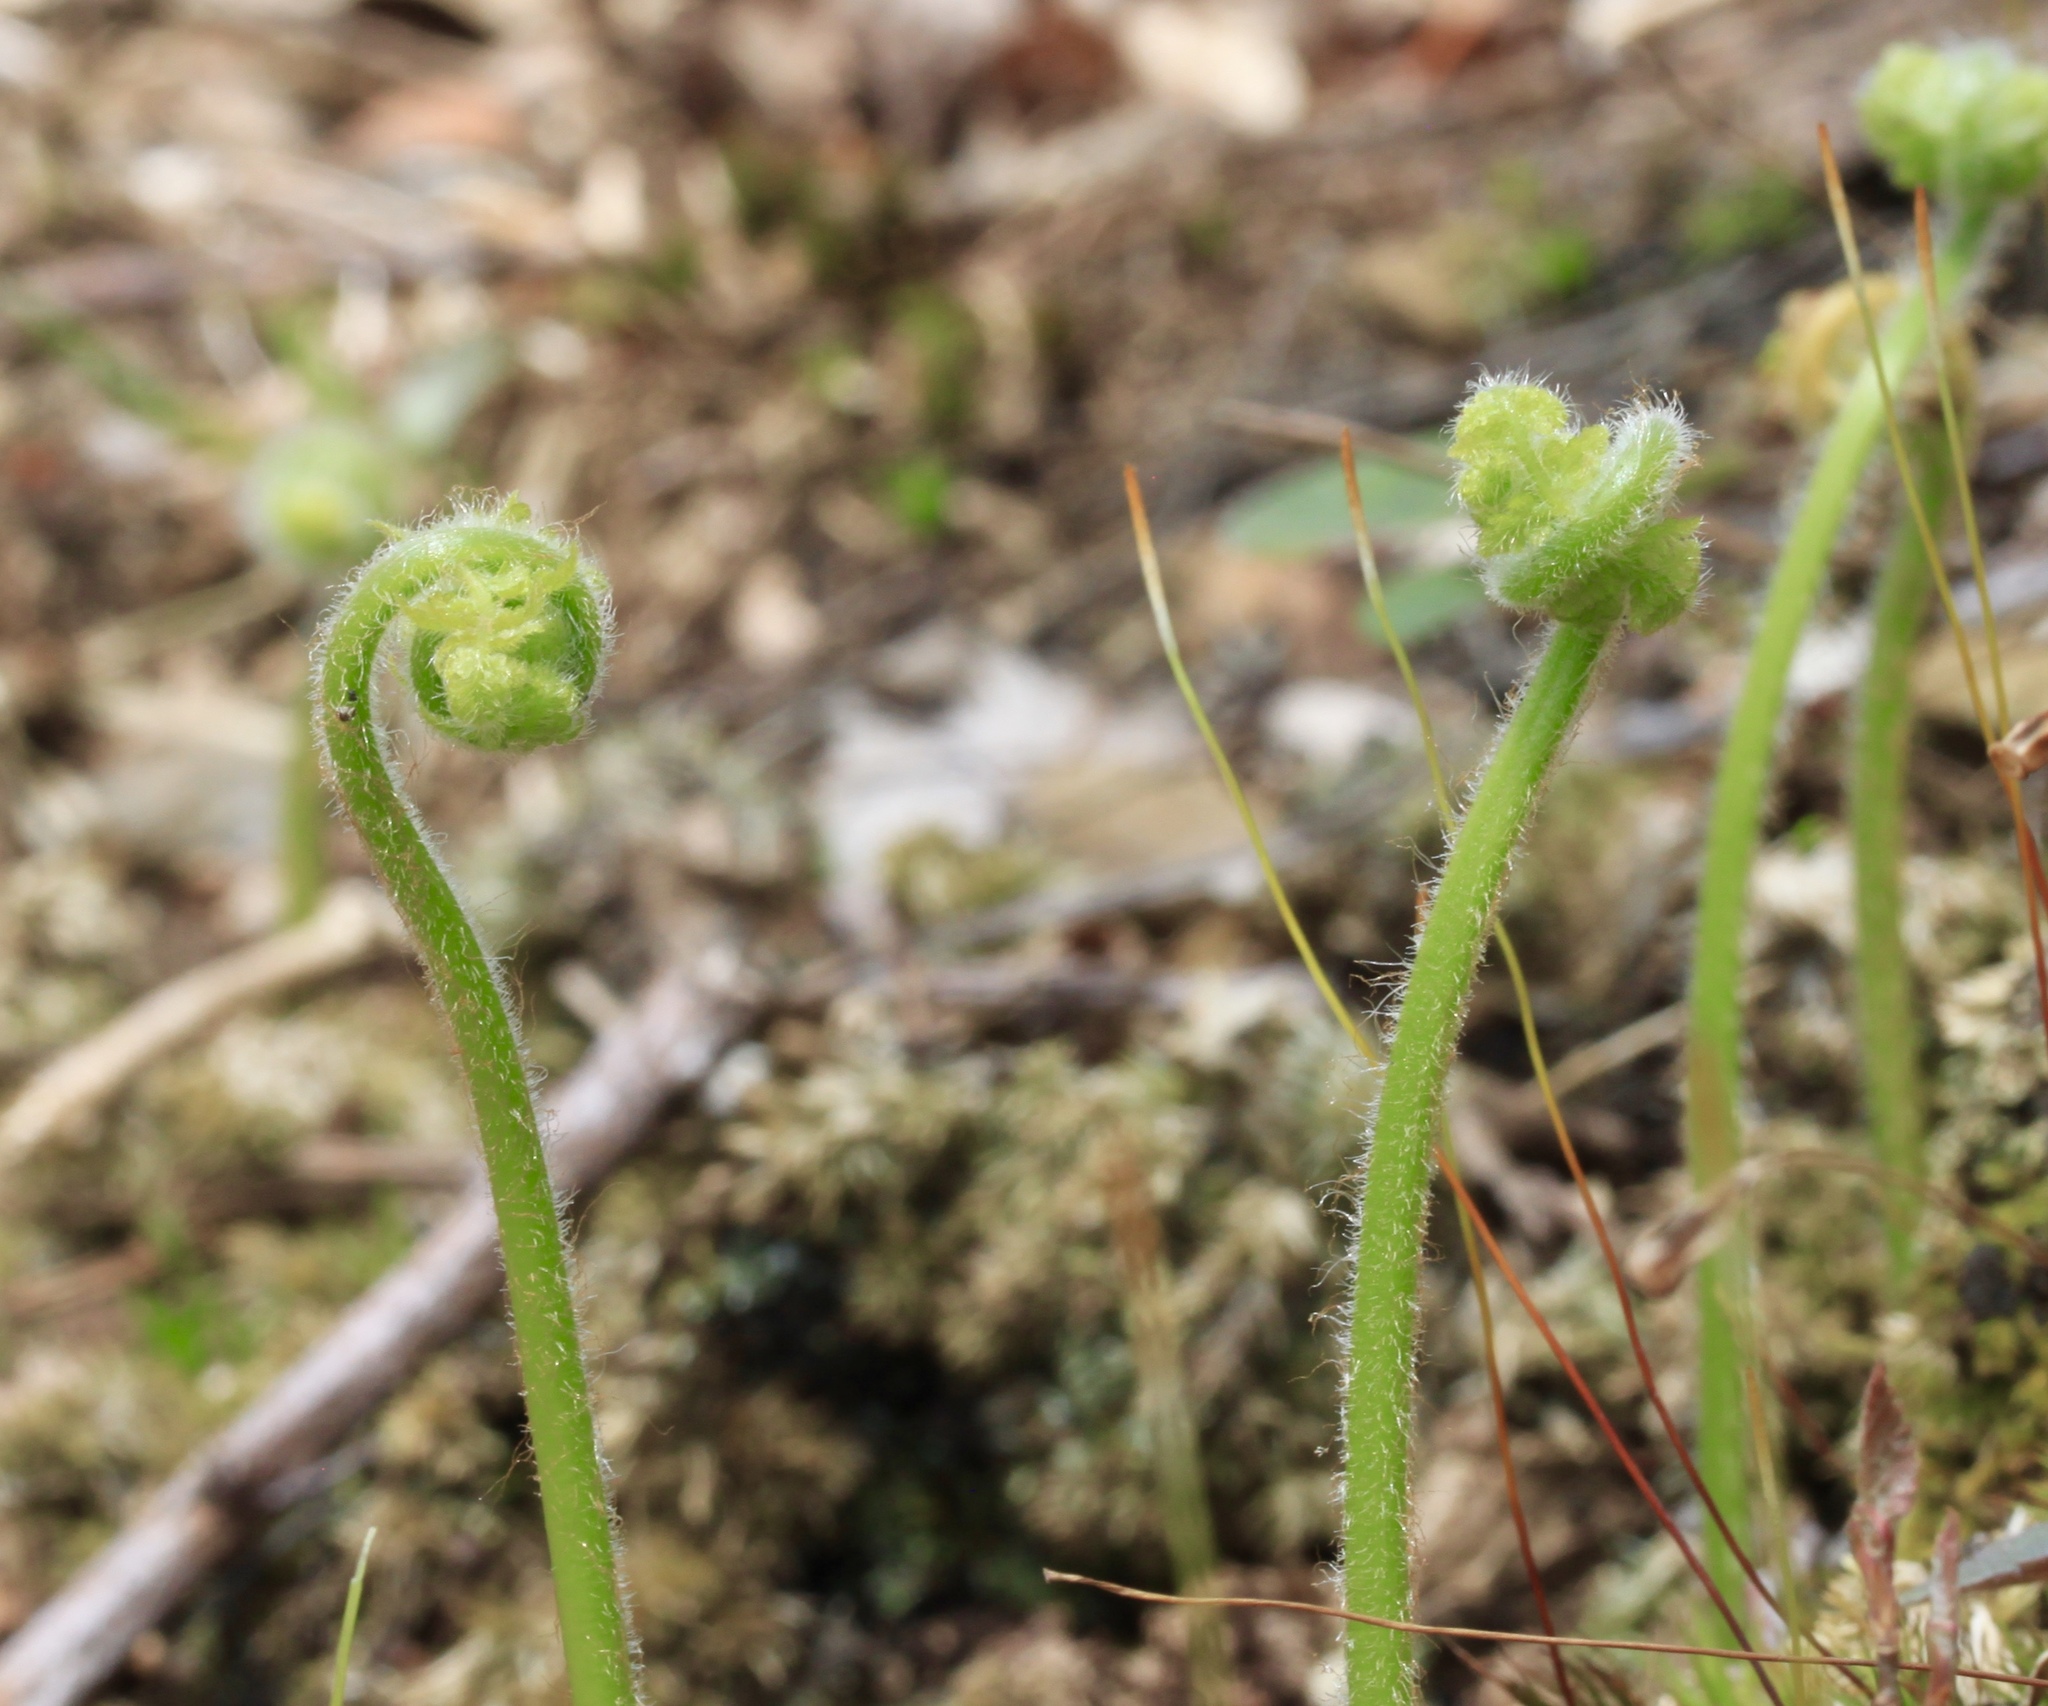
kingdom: Plantae
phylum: Tracheophyta
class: Polypodiopsida
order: Polypodiales
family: Dennstaedtiaceae
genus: Sitobolium
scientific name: Sitobolium punctilobum
